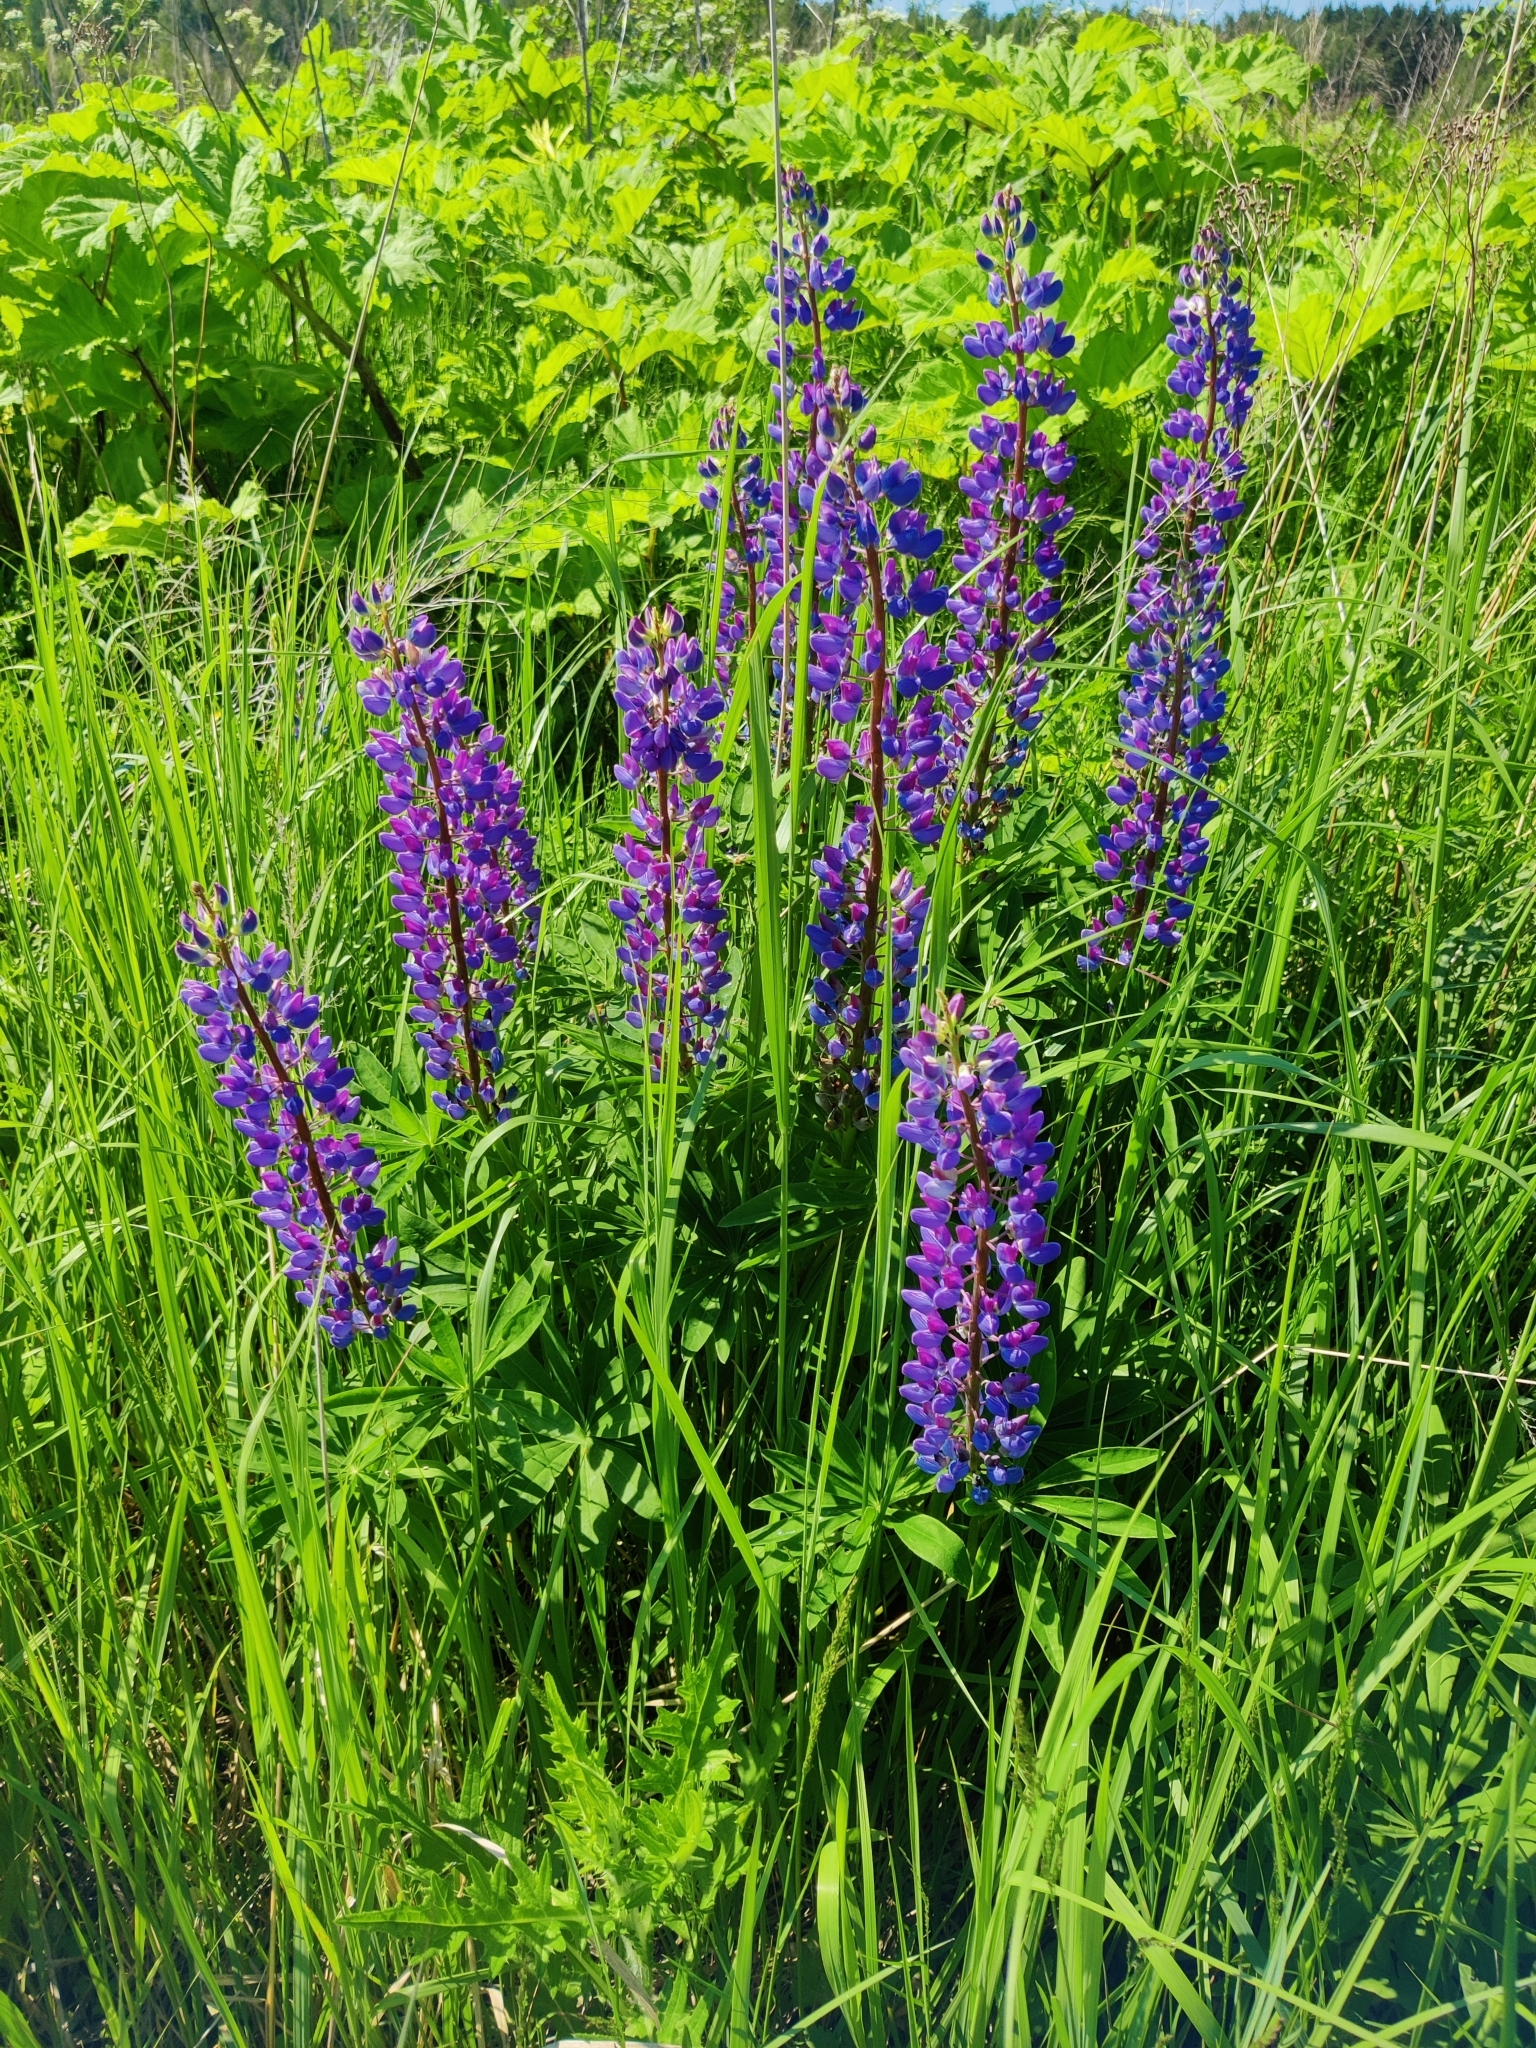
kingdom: Plantae
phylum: Tracheophyta
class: Magnoliopsida
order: Fabales
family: Fabaceae
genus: Lupinus
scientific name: Lupinus polyphyllus
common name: Garden lupin
